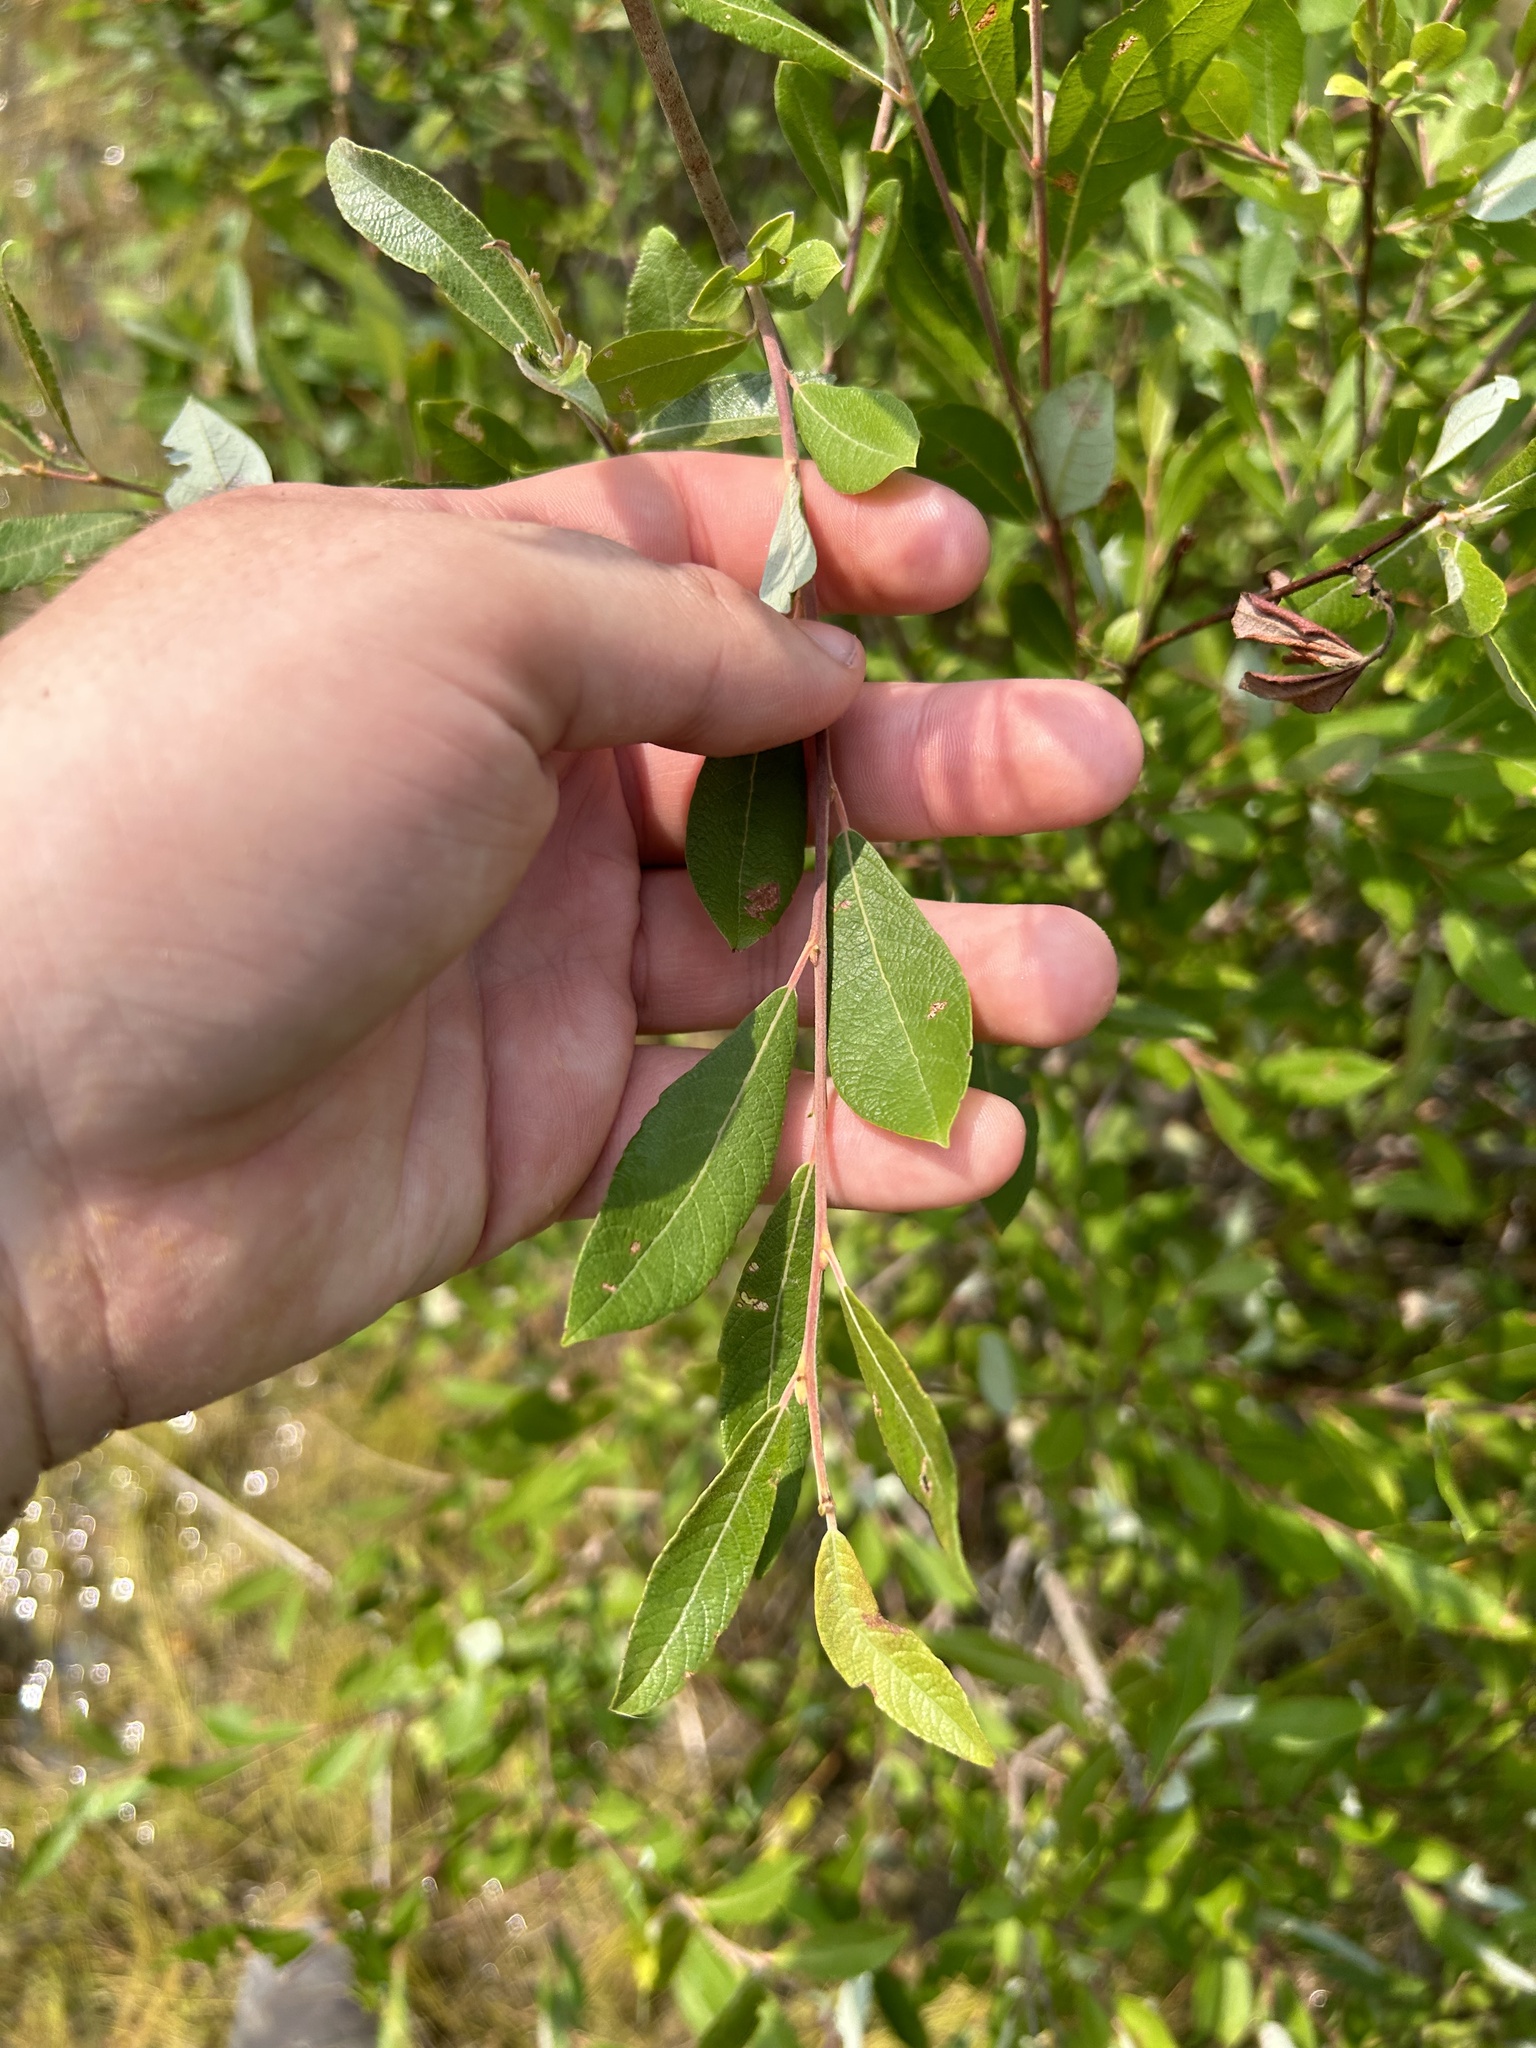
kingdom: Plantae
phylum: Tracheophyta
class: Magnoliopsida
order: Malpighiales
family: Salicaceae
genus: Salix
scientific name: Salix atrocinerea
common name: Rusty willow
